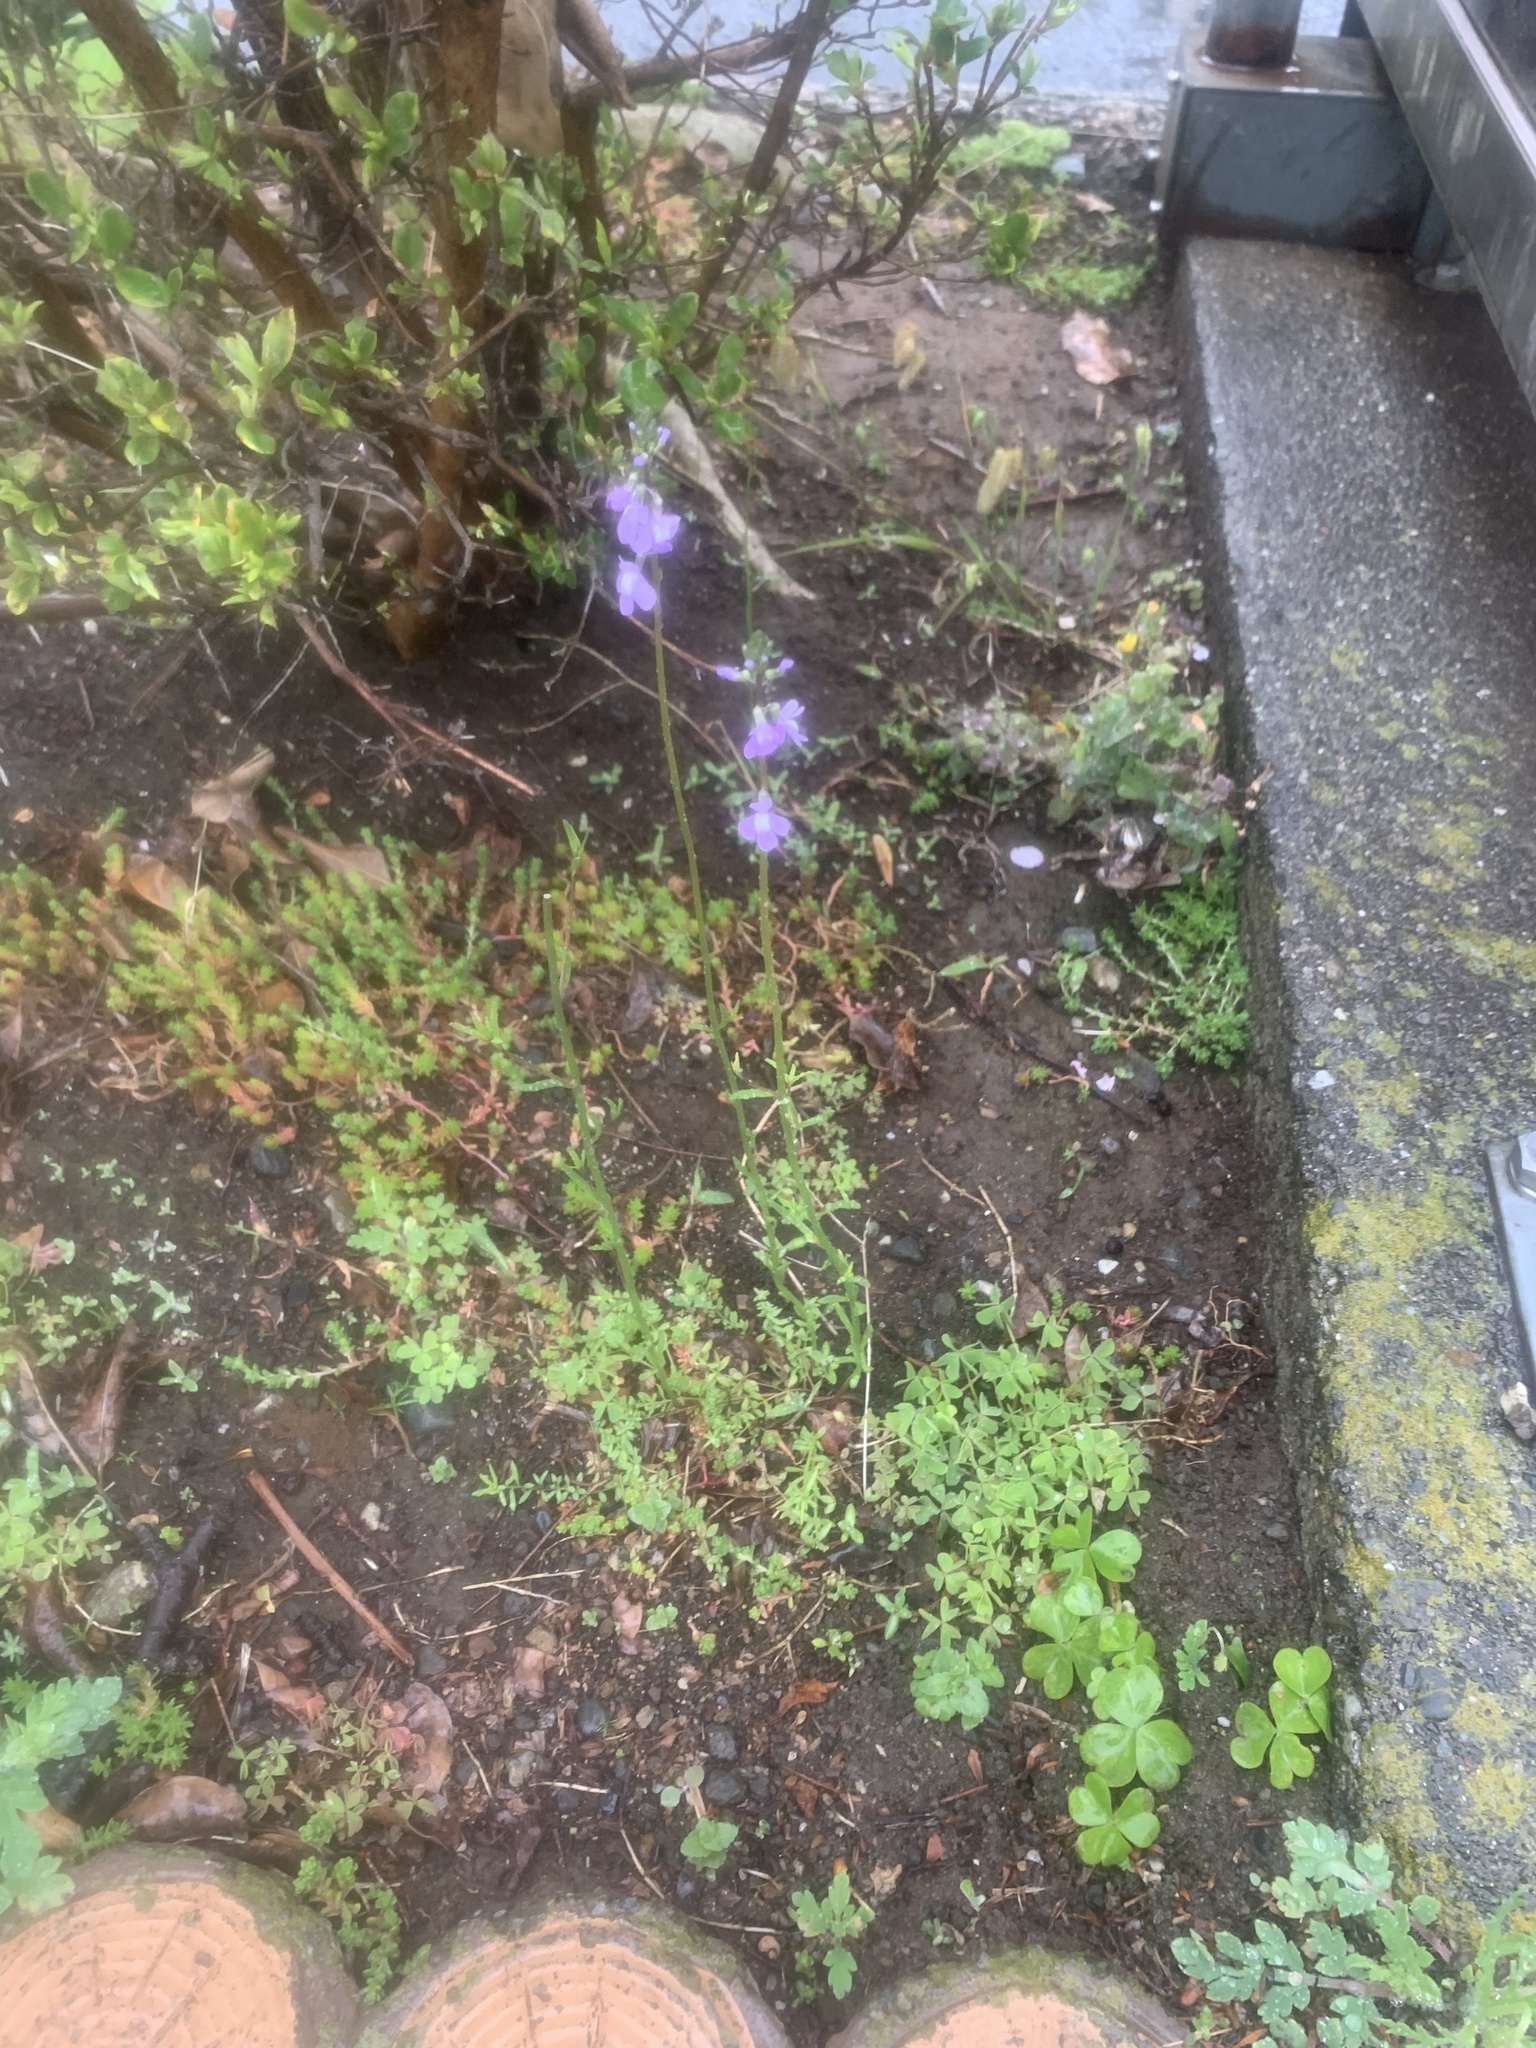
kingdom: Plantae
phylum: Tracheophyta
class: Magnoliopsida
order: Lamiales
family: Plantaginaceae
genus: Nuttallanthus
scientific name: Nuttallanthus canadensis
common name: Blue toadflax
